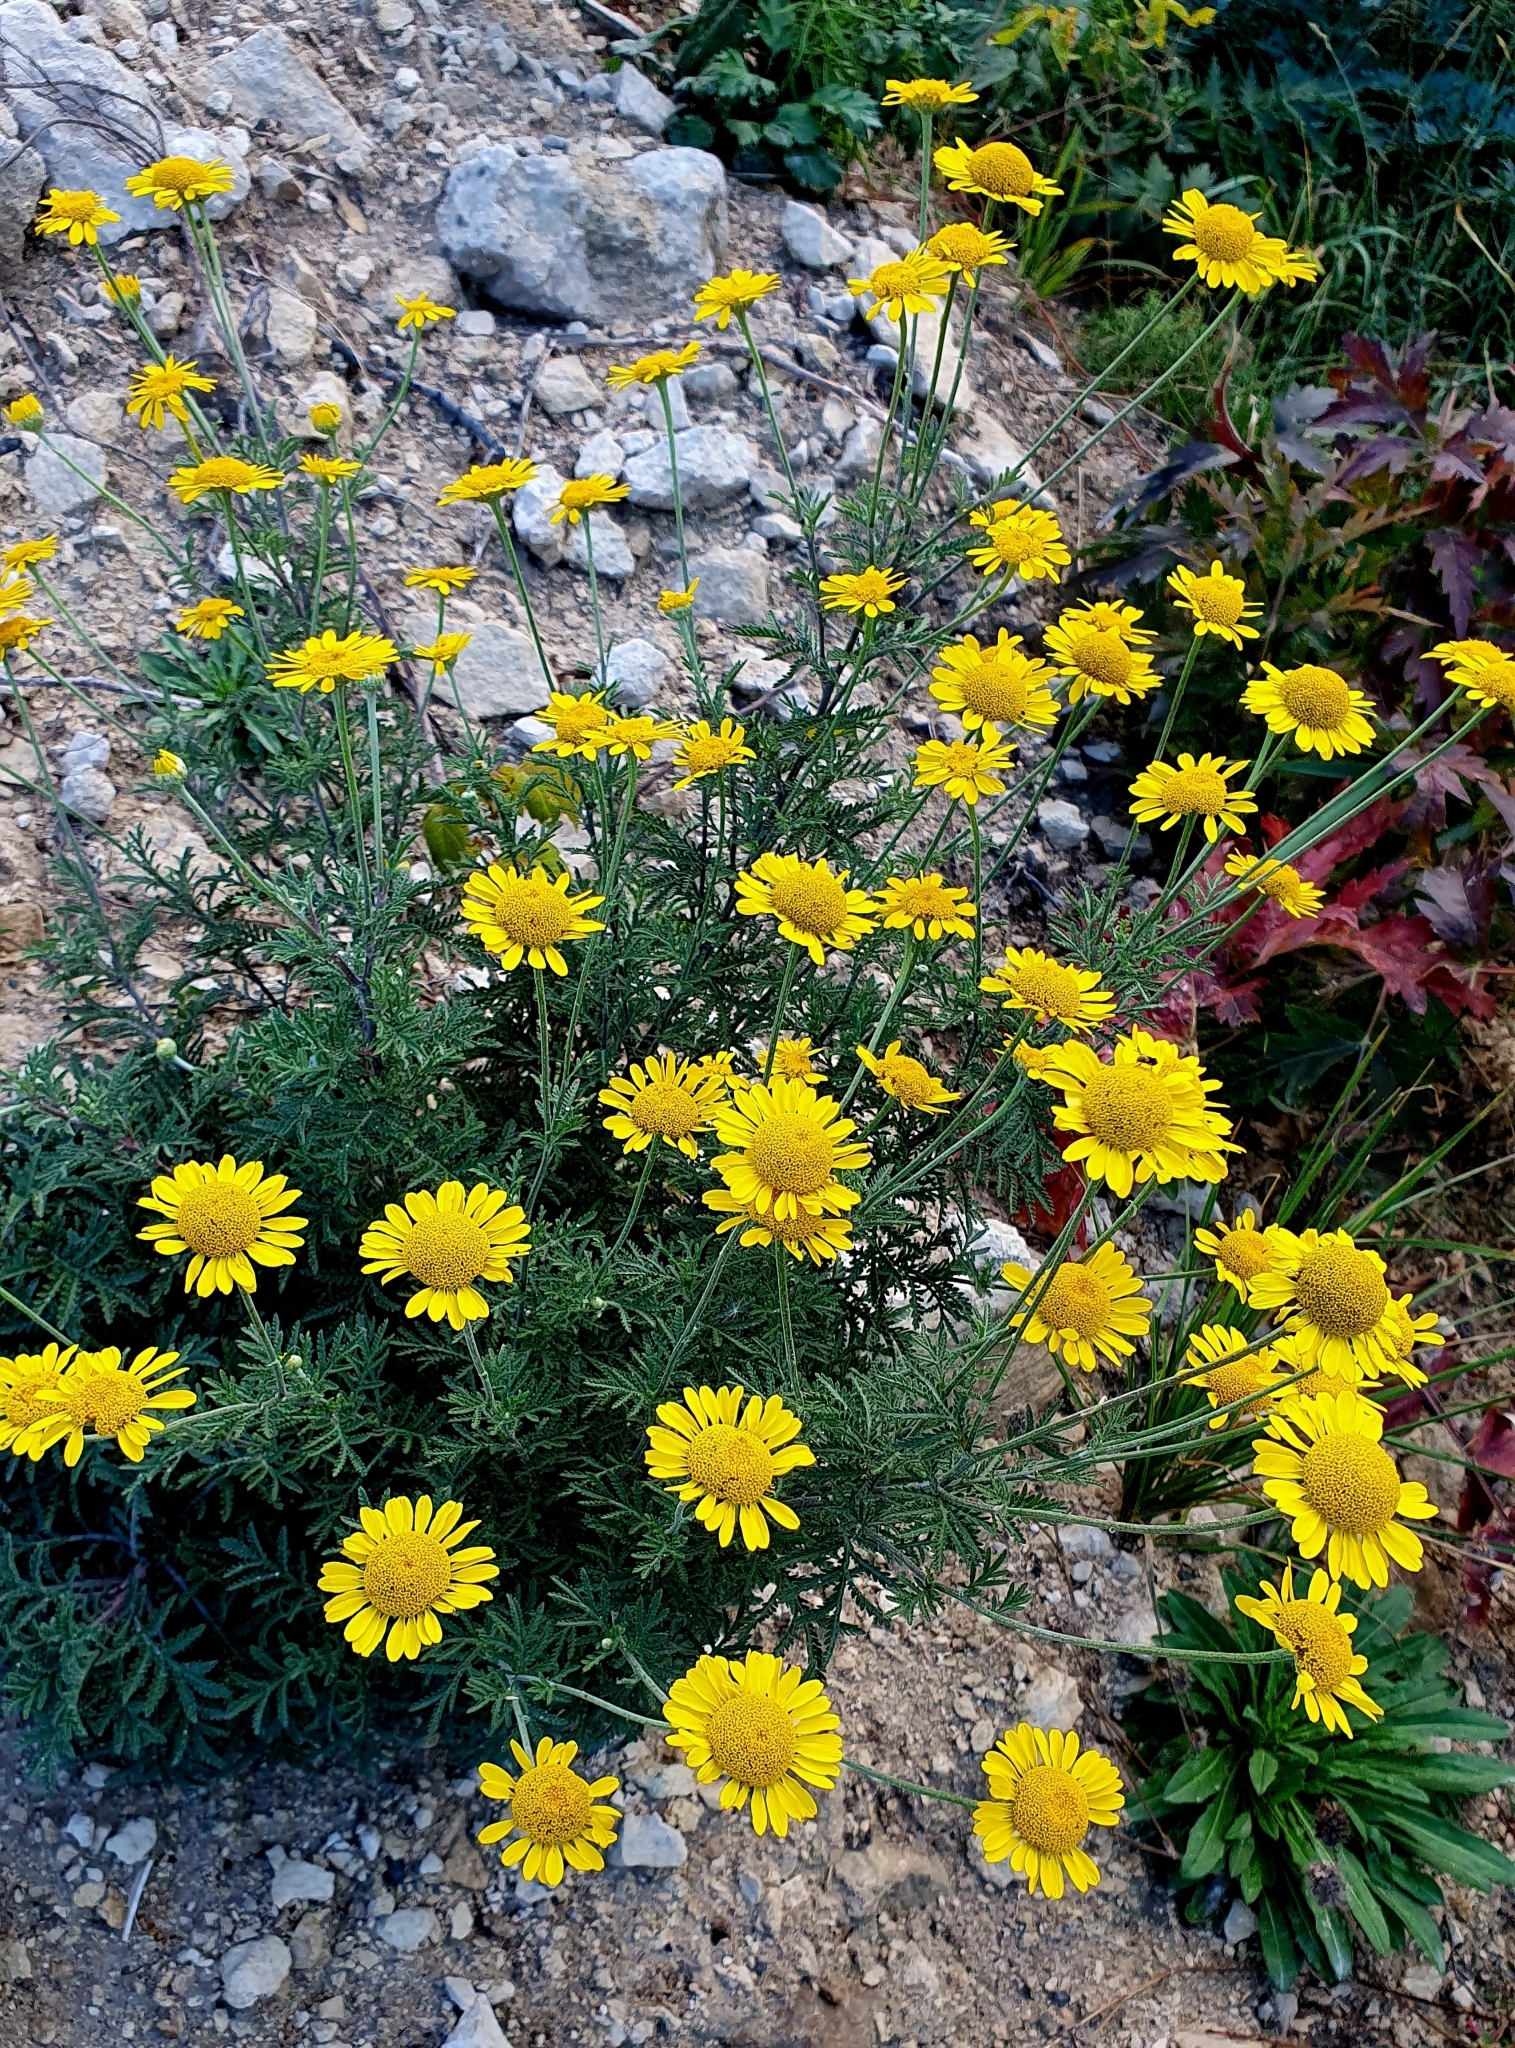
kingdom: Plantae
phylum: Tracheophyta
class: Magnoliopsida
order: Asterales
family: Asteraceae
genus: Cota
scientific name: Cota tinctoria
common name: Golden chamomile
